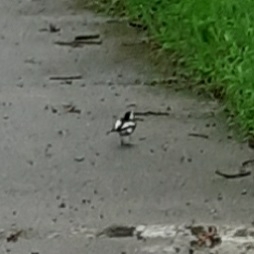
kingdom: Animalia
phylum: Chordata
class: Aves
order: Passeriformes
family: Motacillidae
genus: Motacilla
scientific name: Motacilla alba
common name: White wagtail
